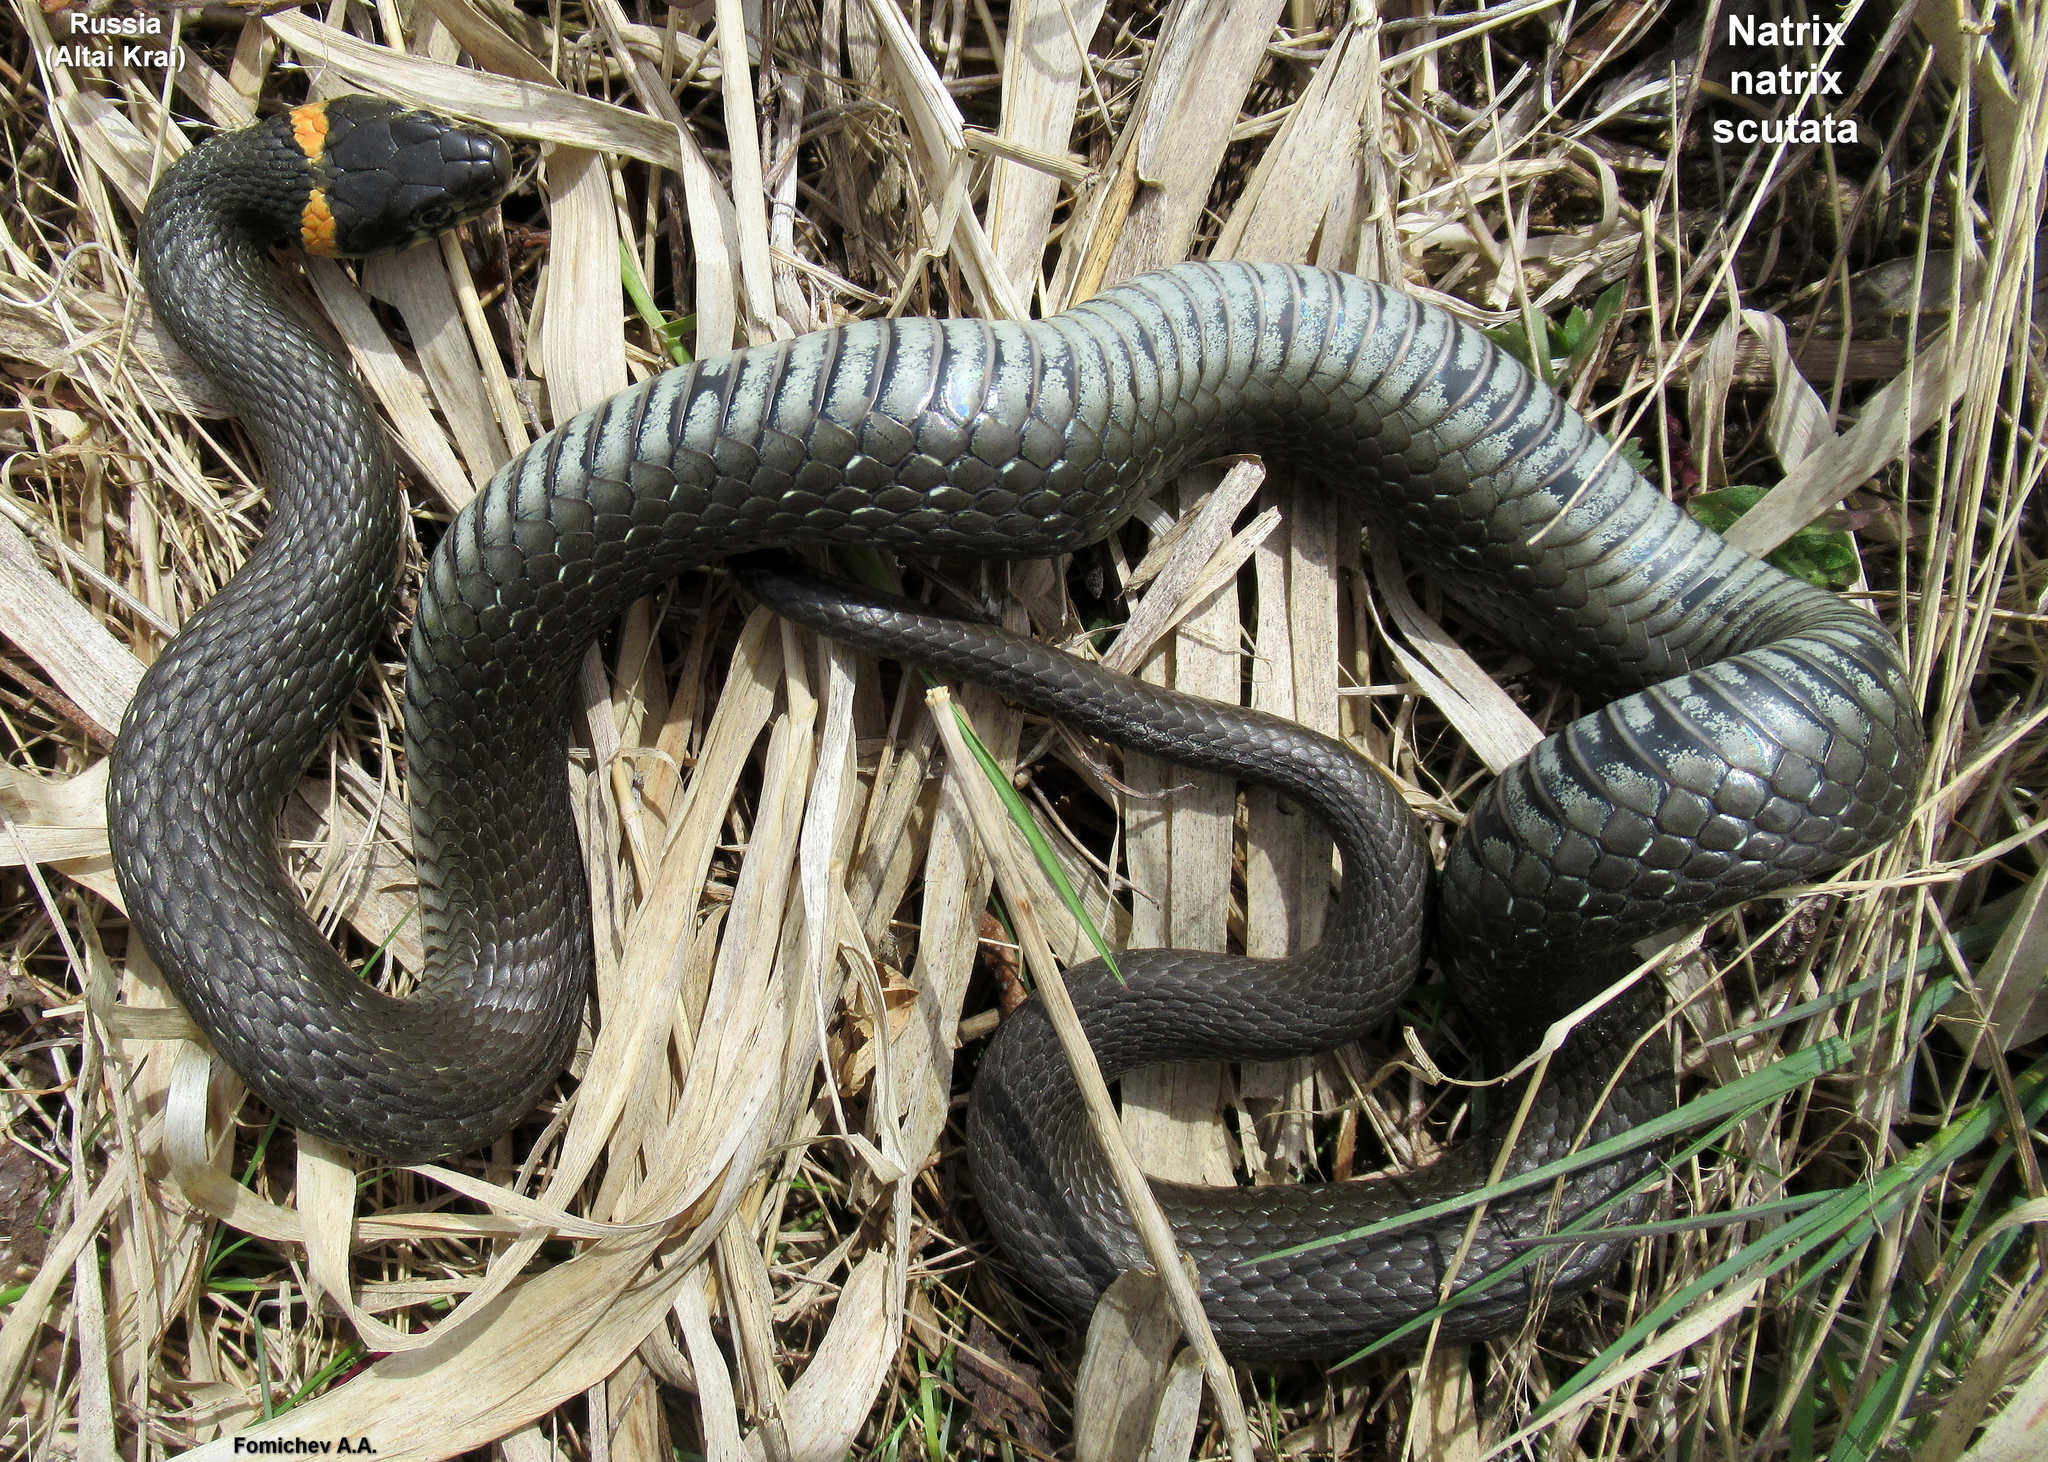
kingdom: Animalia
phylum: Chordata
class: Squamata
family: Colubridae
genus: Natrix
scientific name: Natrix natrix
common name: Grass snake
